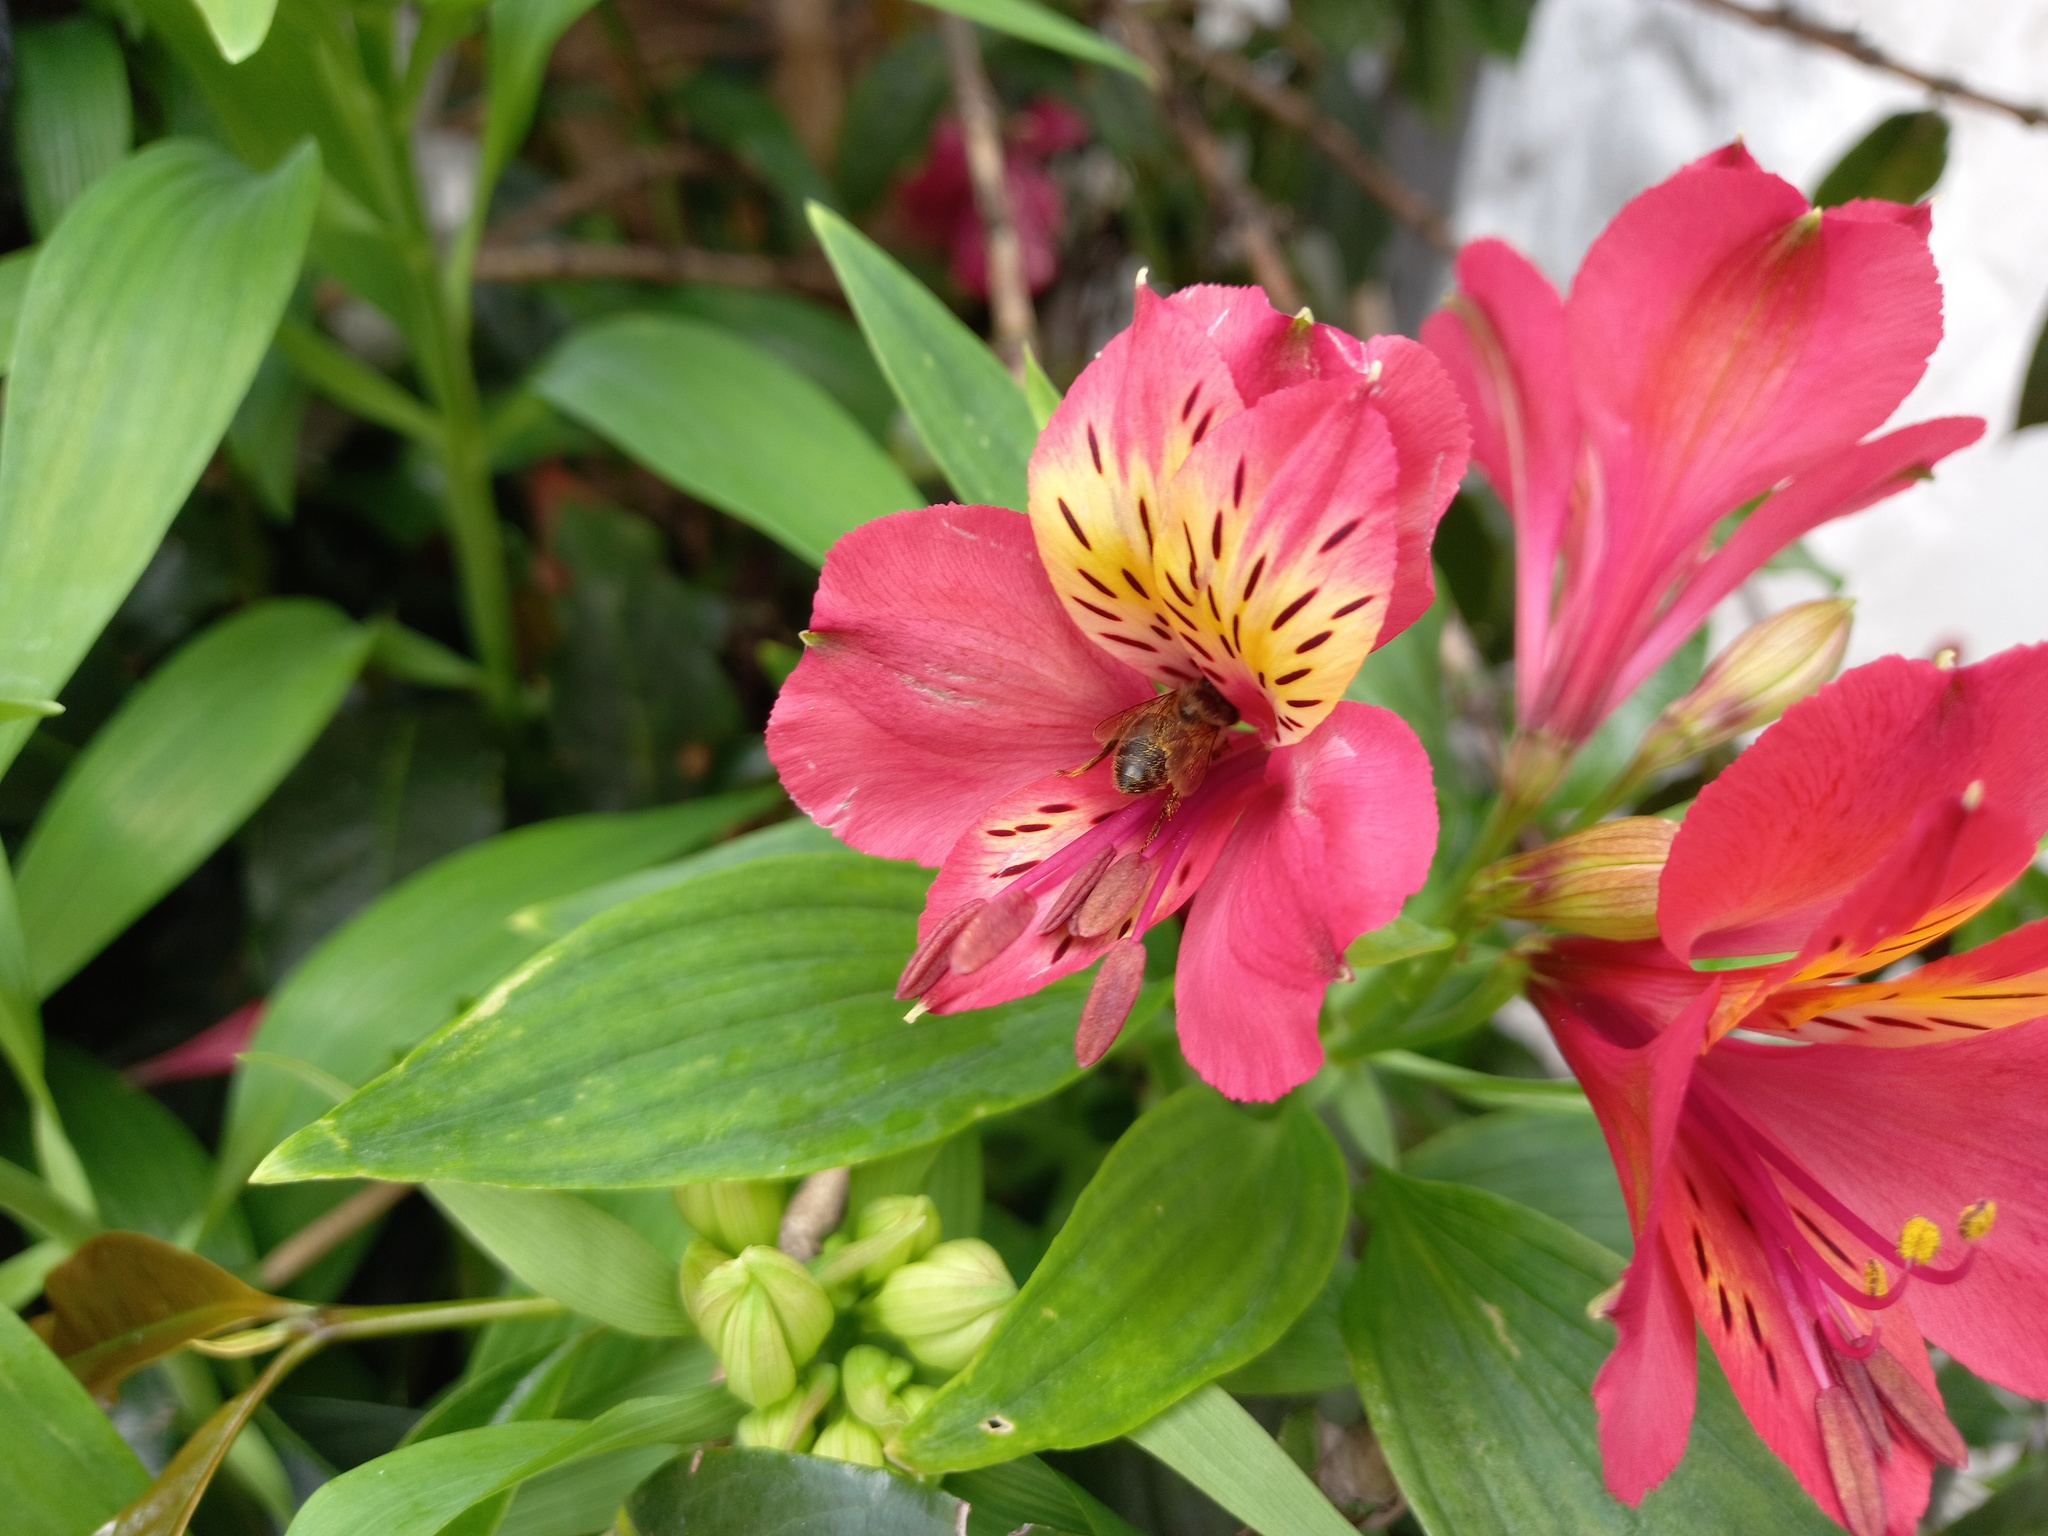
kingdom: Animalia
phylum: Arthropoda
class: Insecta
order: Hymenoptera
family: Apidae
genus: Apis
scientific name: Apis mellifera
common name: Honey bee
